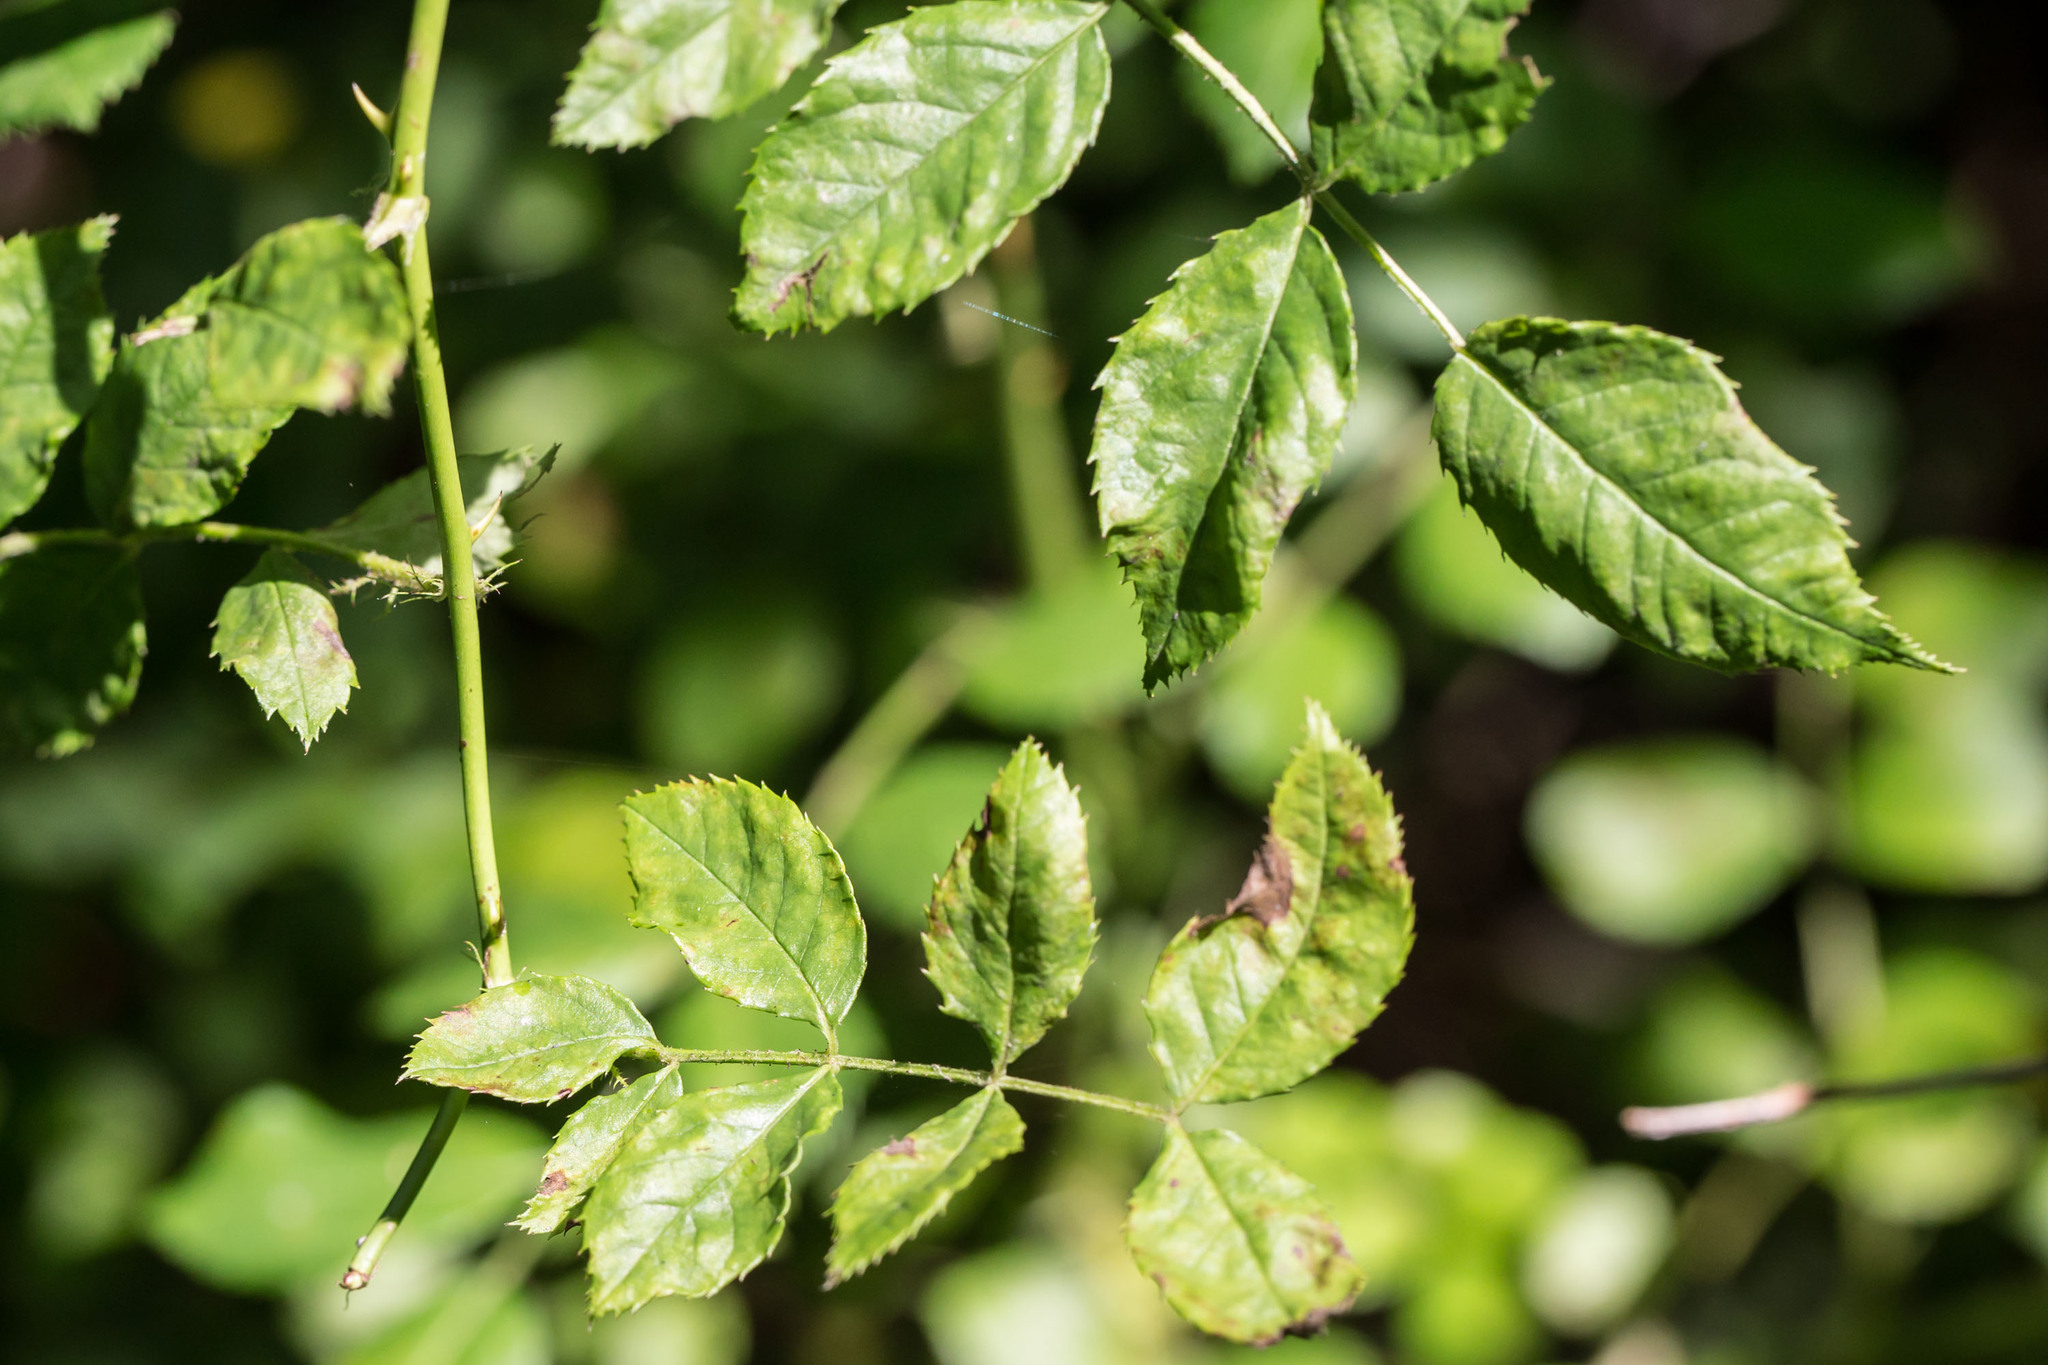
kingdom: Plantae
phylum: Tracheophyta
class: Magnoliopsida
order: Rosales
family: Rosaceae
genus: Rosa
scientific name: Rosa multiflora
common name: Multiflora rose
